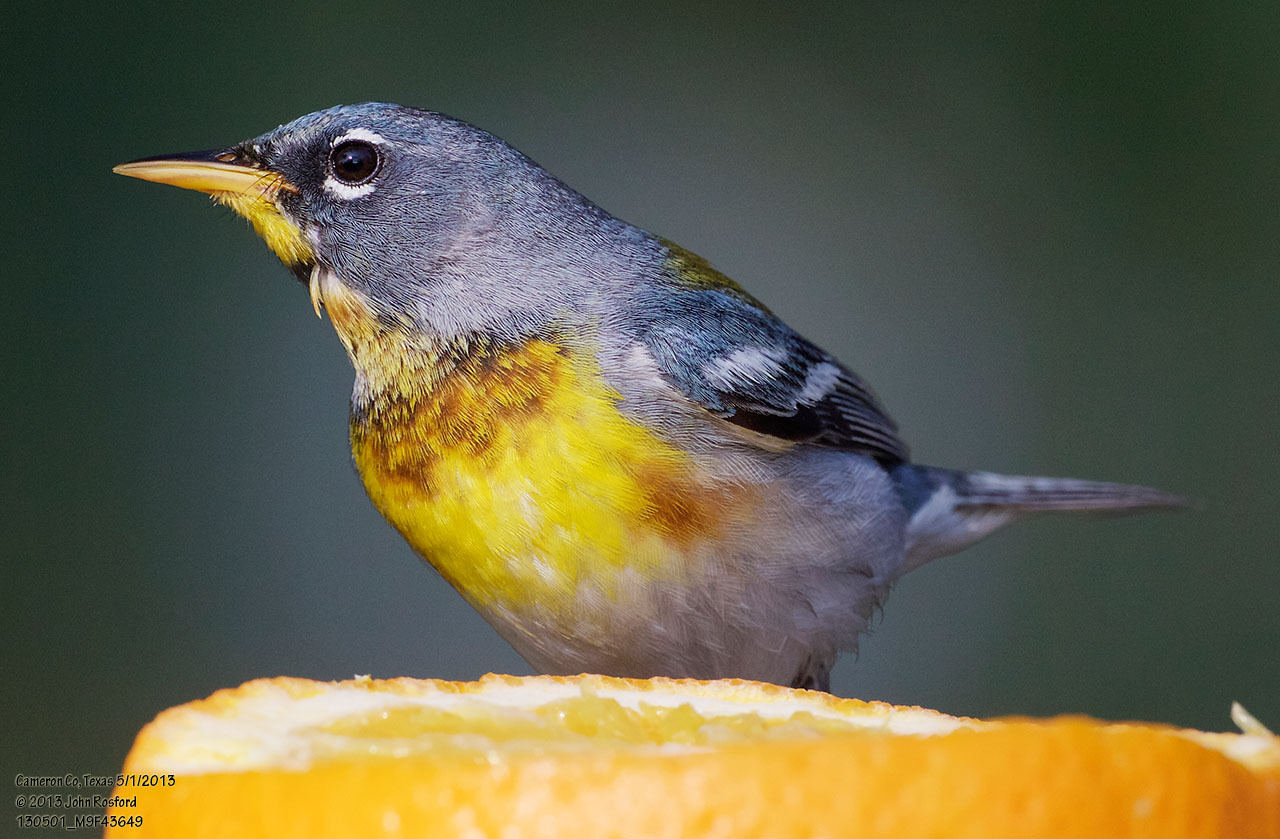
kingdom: Animalia
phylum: Chordata
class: Aves
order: Passeriformes
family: Parulidae
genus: Setophaga
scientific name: Setophaga americana
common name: Northern parula
